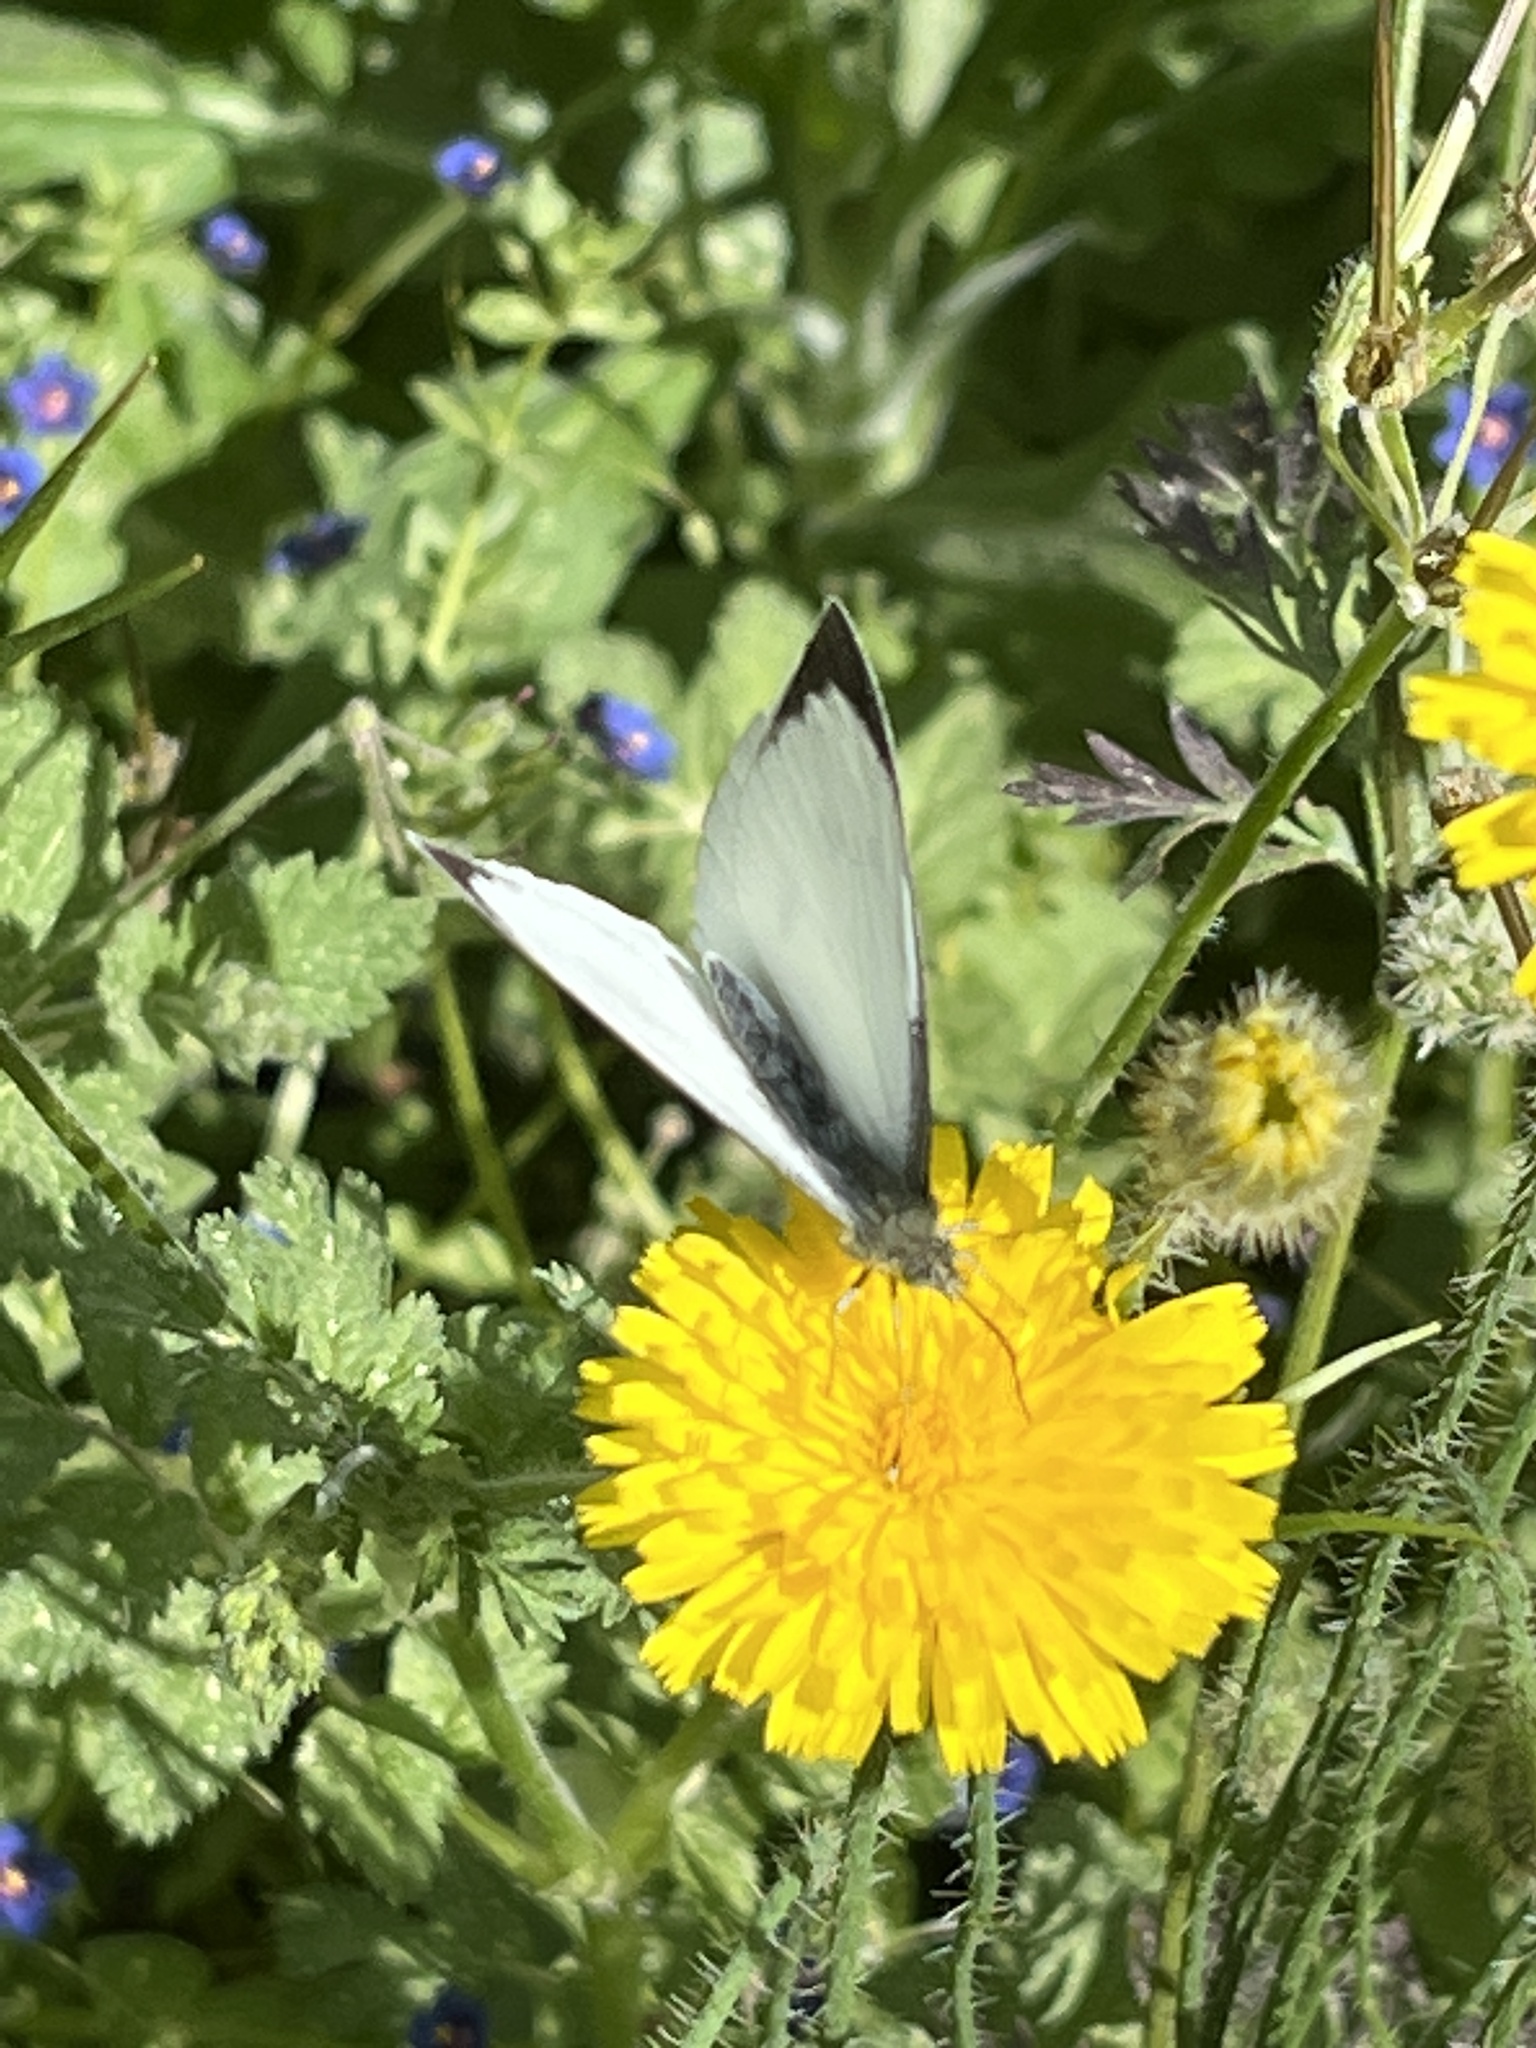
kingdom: Animalia
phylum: Arthropoda
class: Insecta
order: Lepidoptera
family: Pieridae
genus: Pieris
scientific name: Pieris brassicae
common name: Large white
